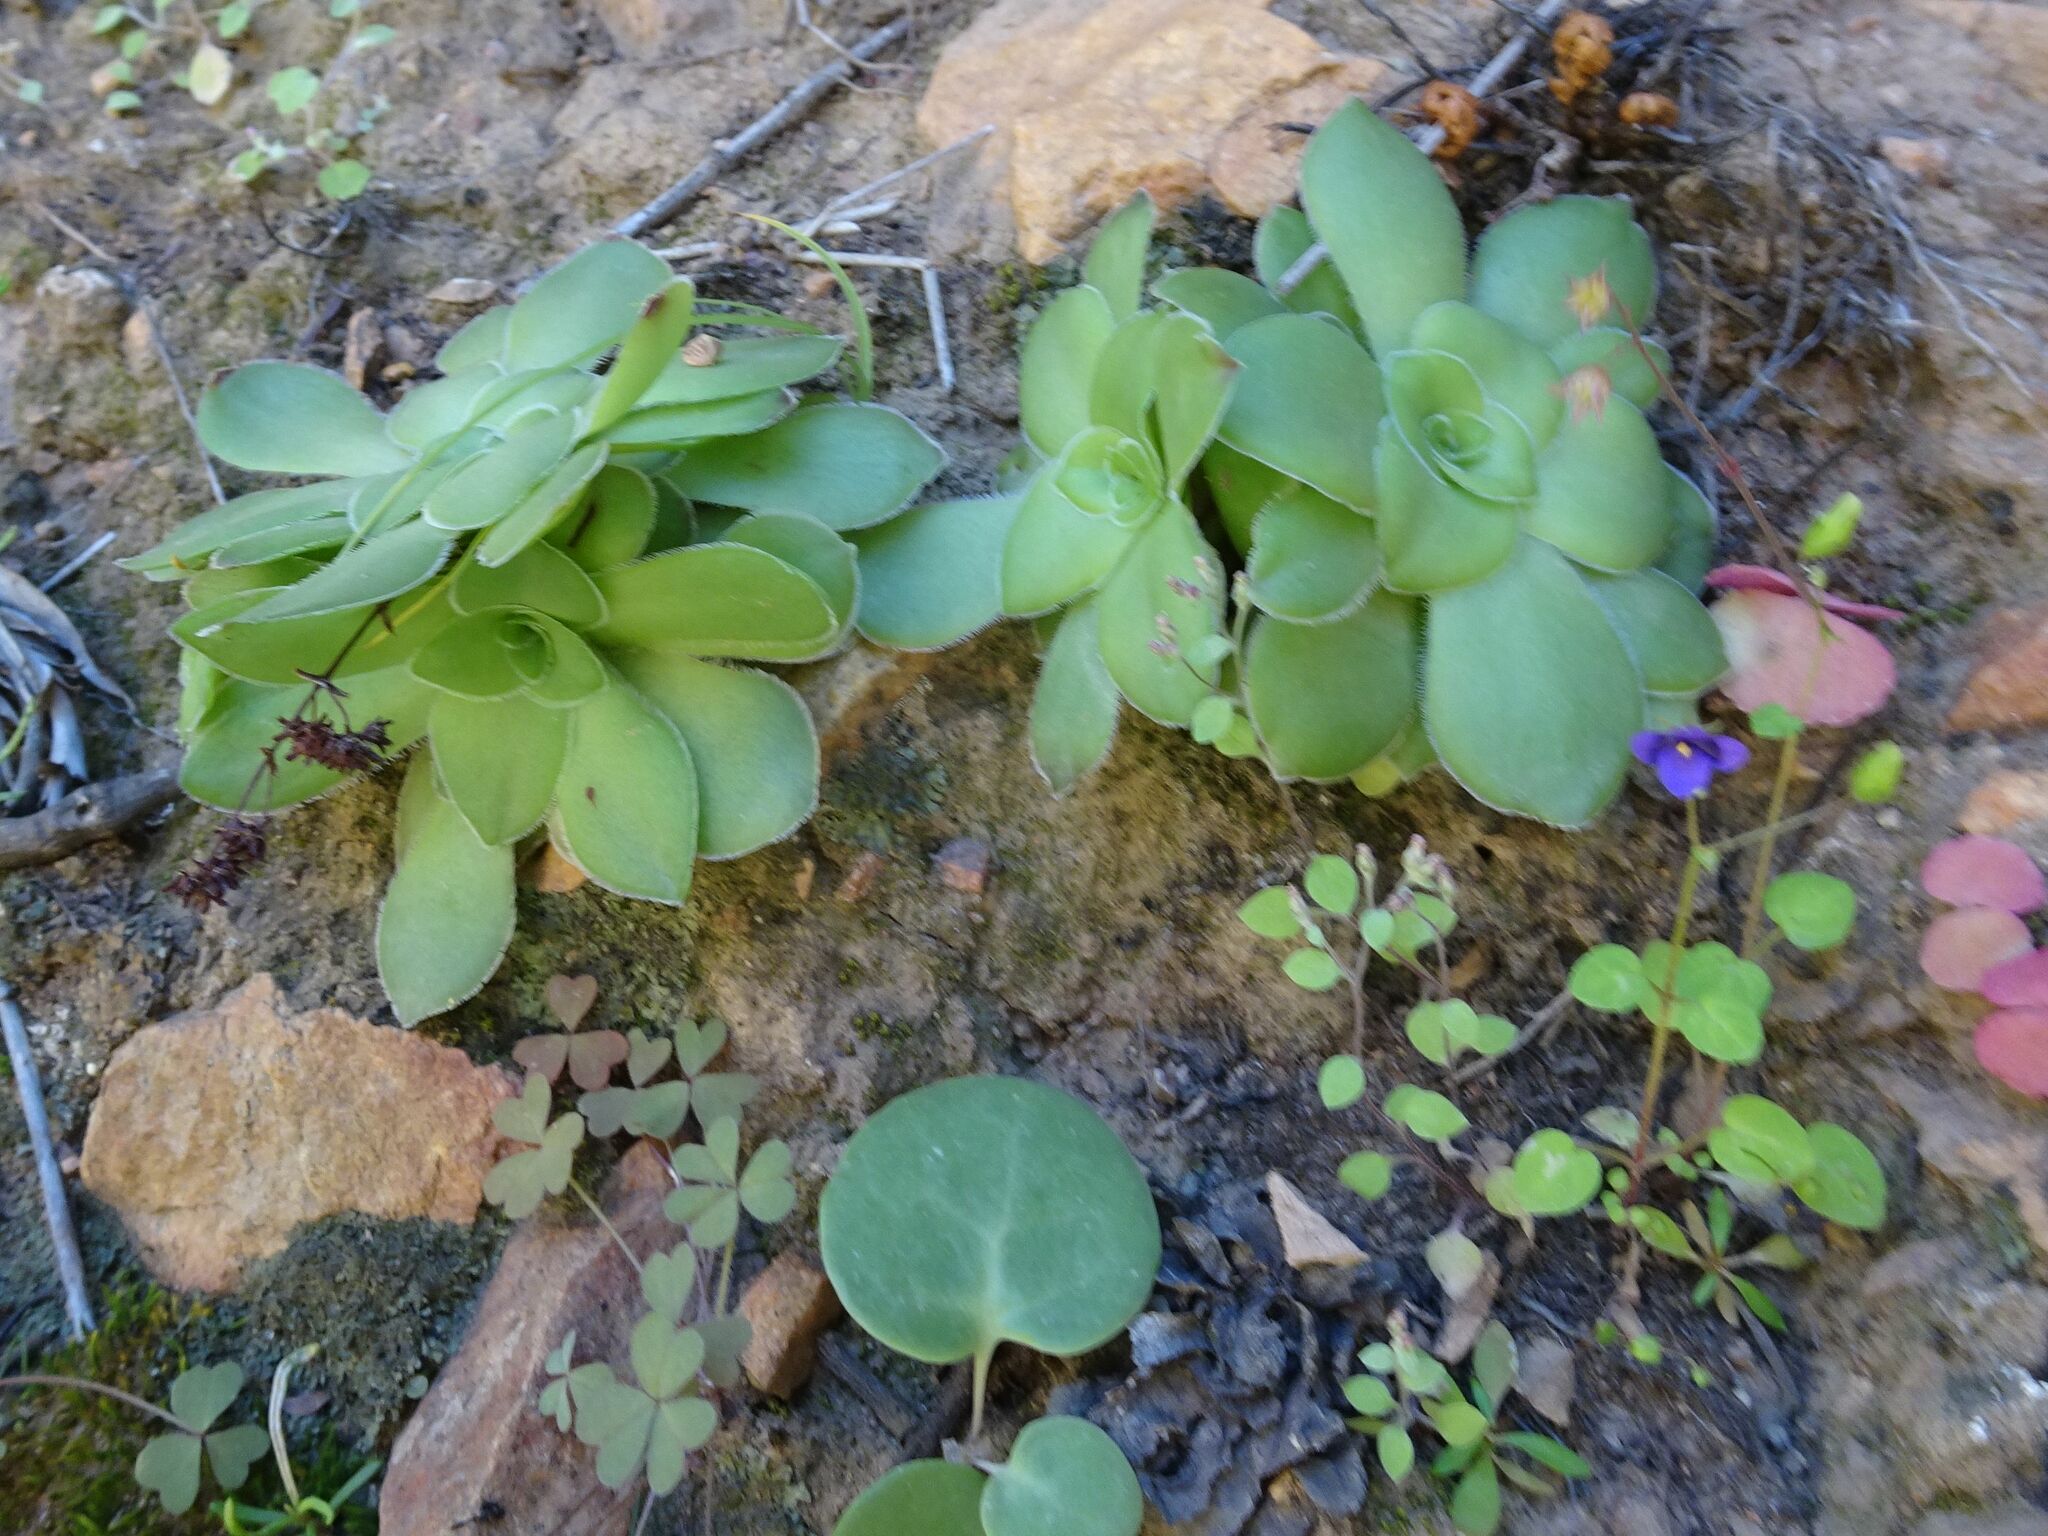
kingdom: Plantae
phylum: Tracheophyta
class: Magnoliopsida
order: Saxifragales
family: Crassulaceae
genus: Crassula
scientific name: Crassula orbicularis
